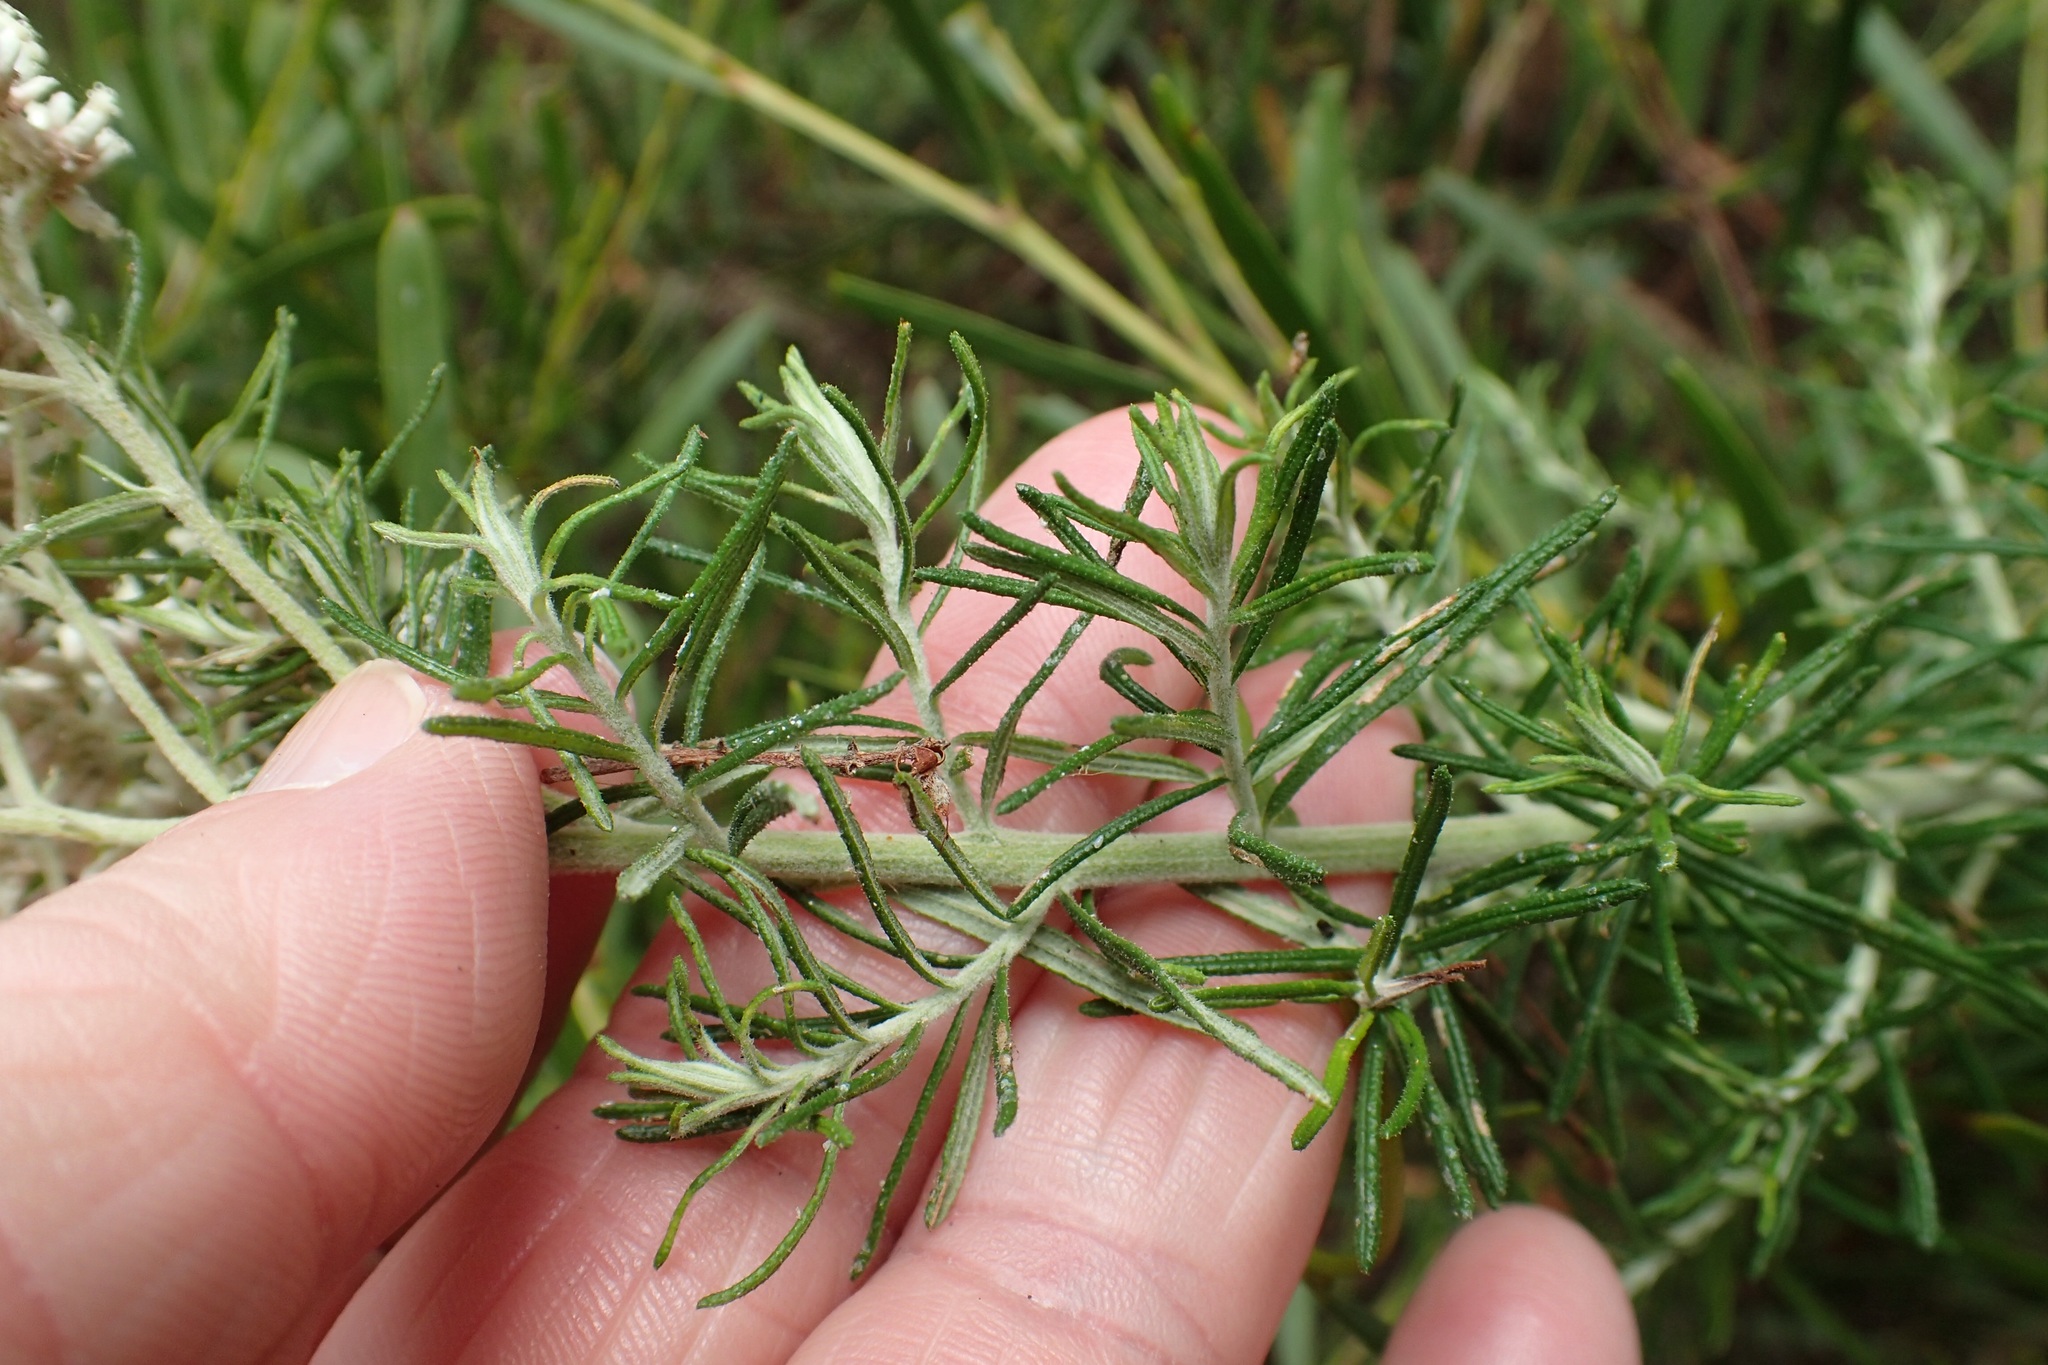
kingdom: Plantae
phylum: Tracheophyta
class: Magnoliopsida
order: Asterales
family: Asteraceae
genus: Cassinia
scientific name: Cassinia aculeata
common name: Australian tauhinu
